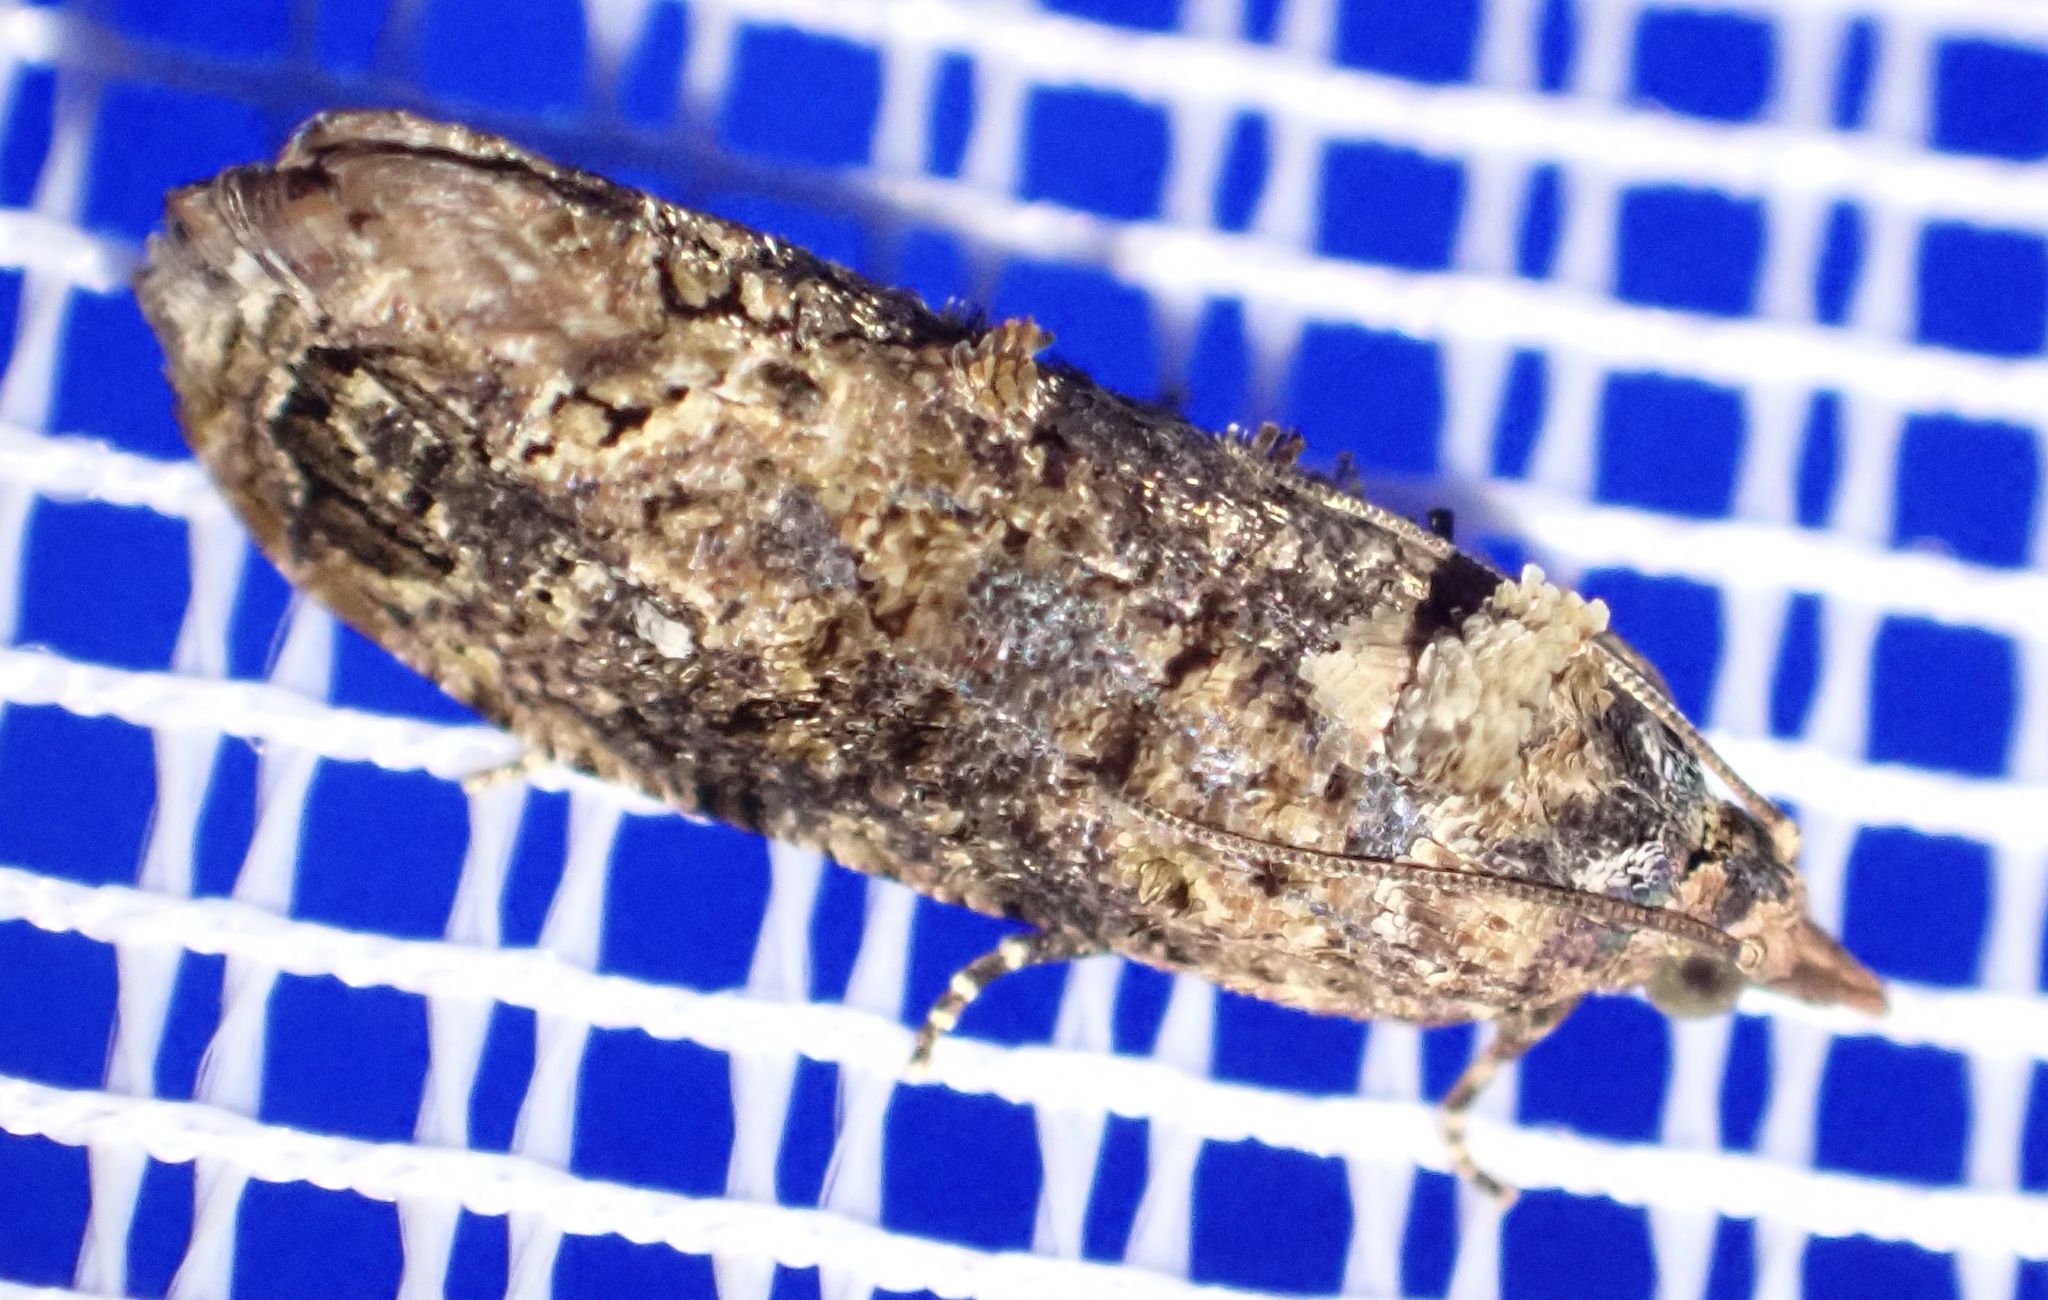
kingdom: Animalia
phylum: Arthropoda
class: Insecta
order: Lepidoptera
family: Tortricidae
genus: Thaumatotibia
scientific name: Thaumatotibia leucotreta
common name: False codling moth
